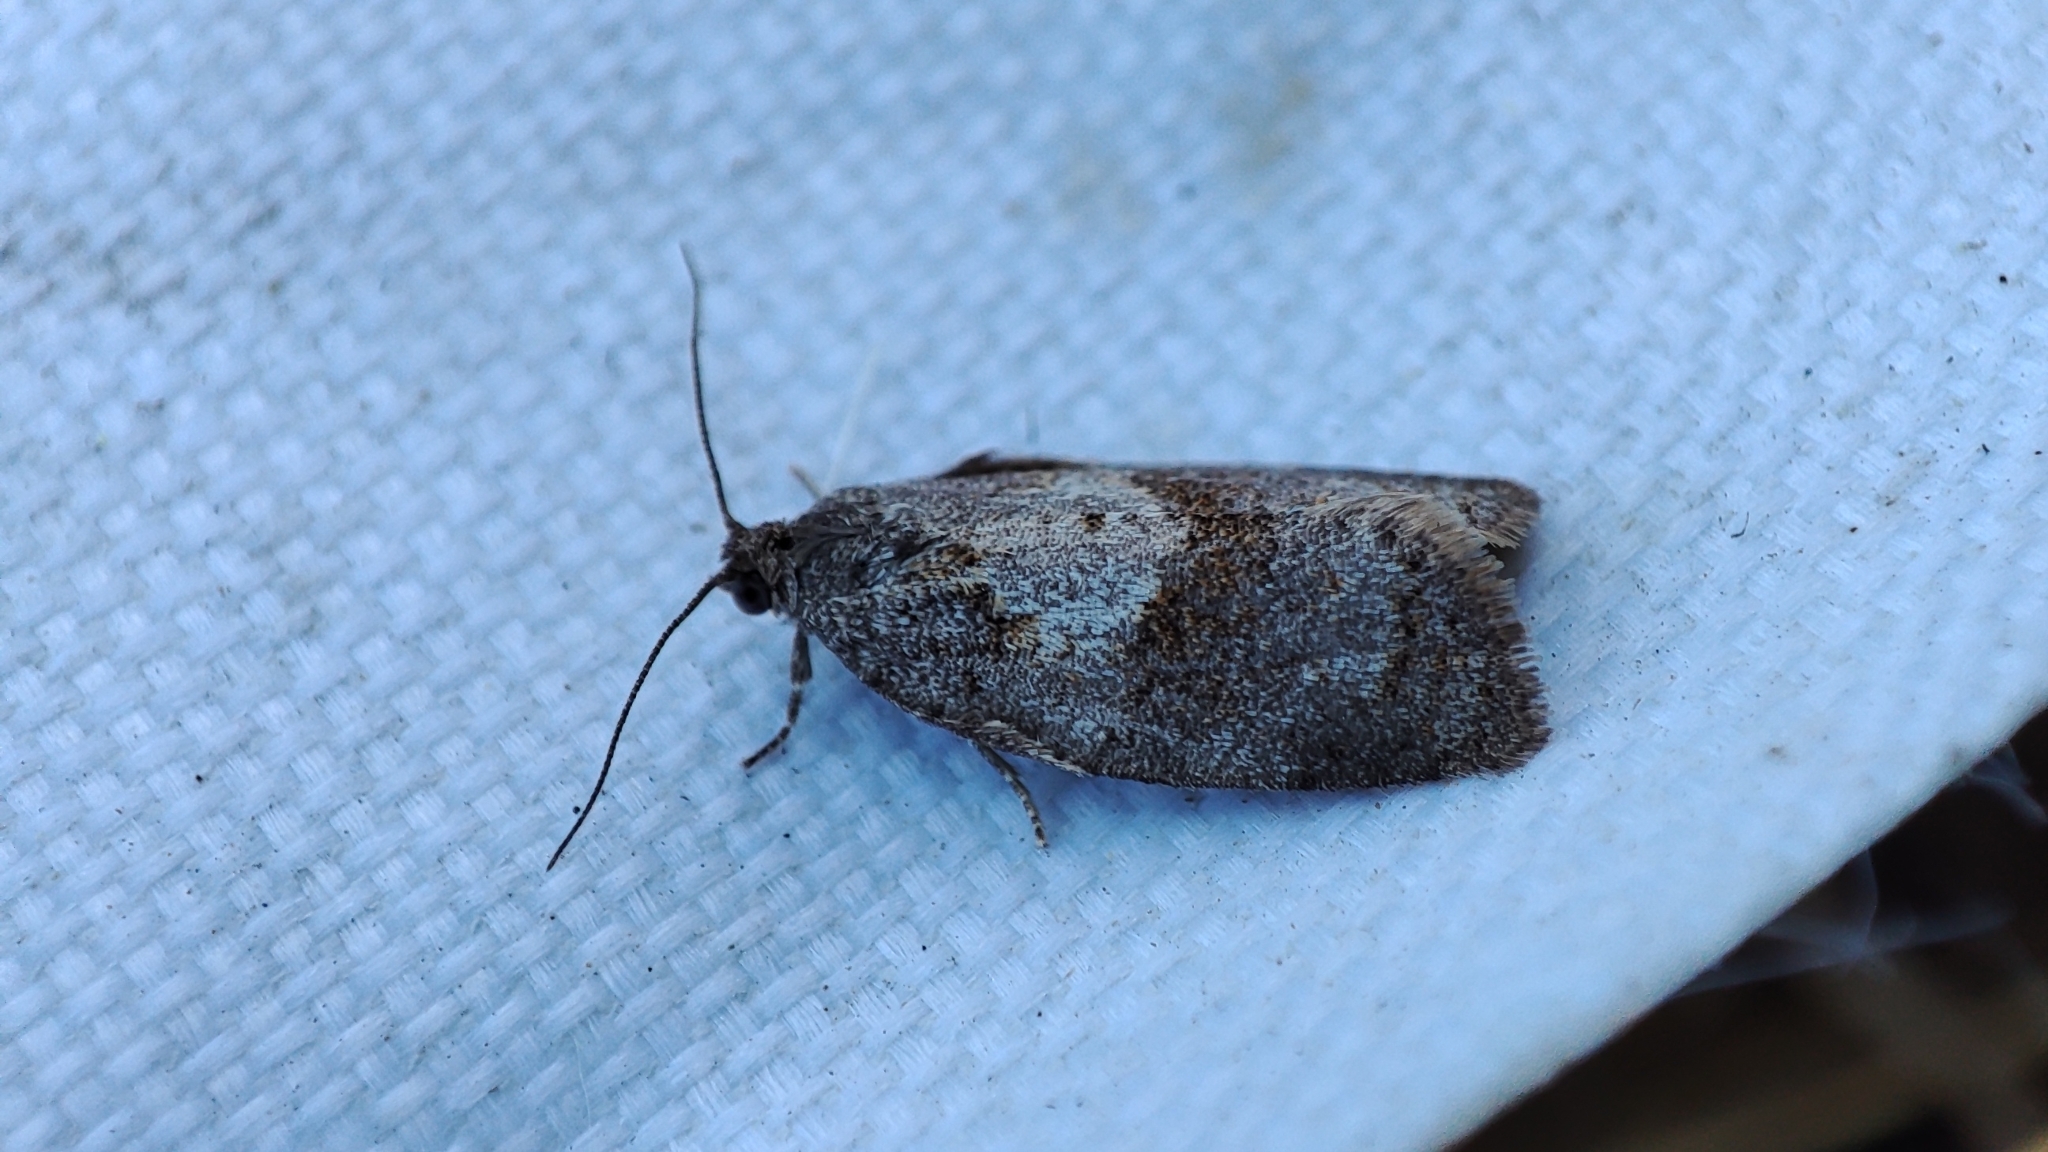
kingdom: Animalia
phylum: Arthropoda
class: Insecta
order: Lepidoptera
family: Tortricidae
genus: Syndemis
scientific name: Syndemis musculana
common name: Dark-barred twist
